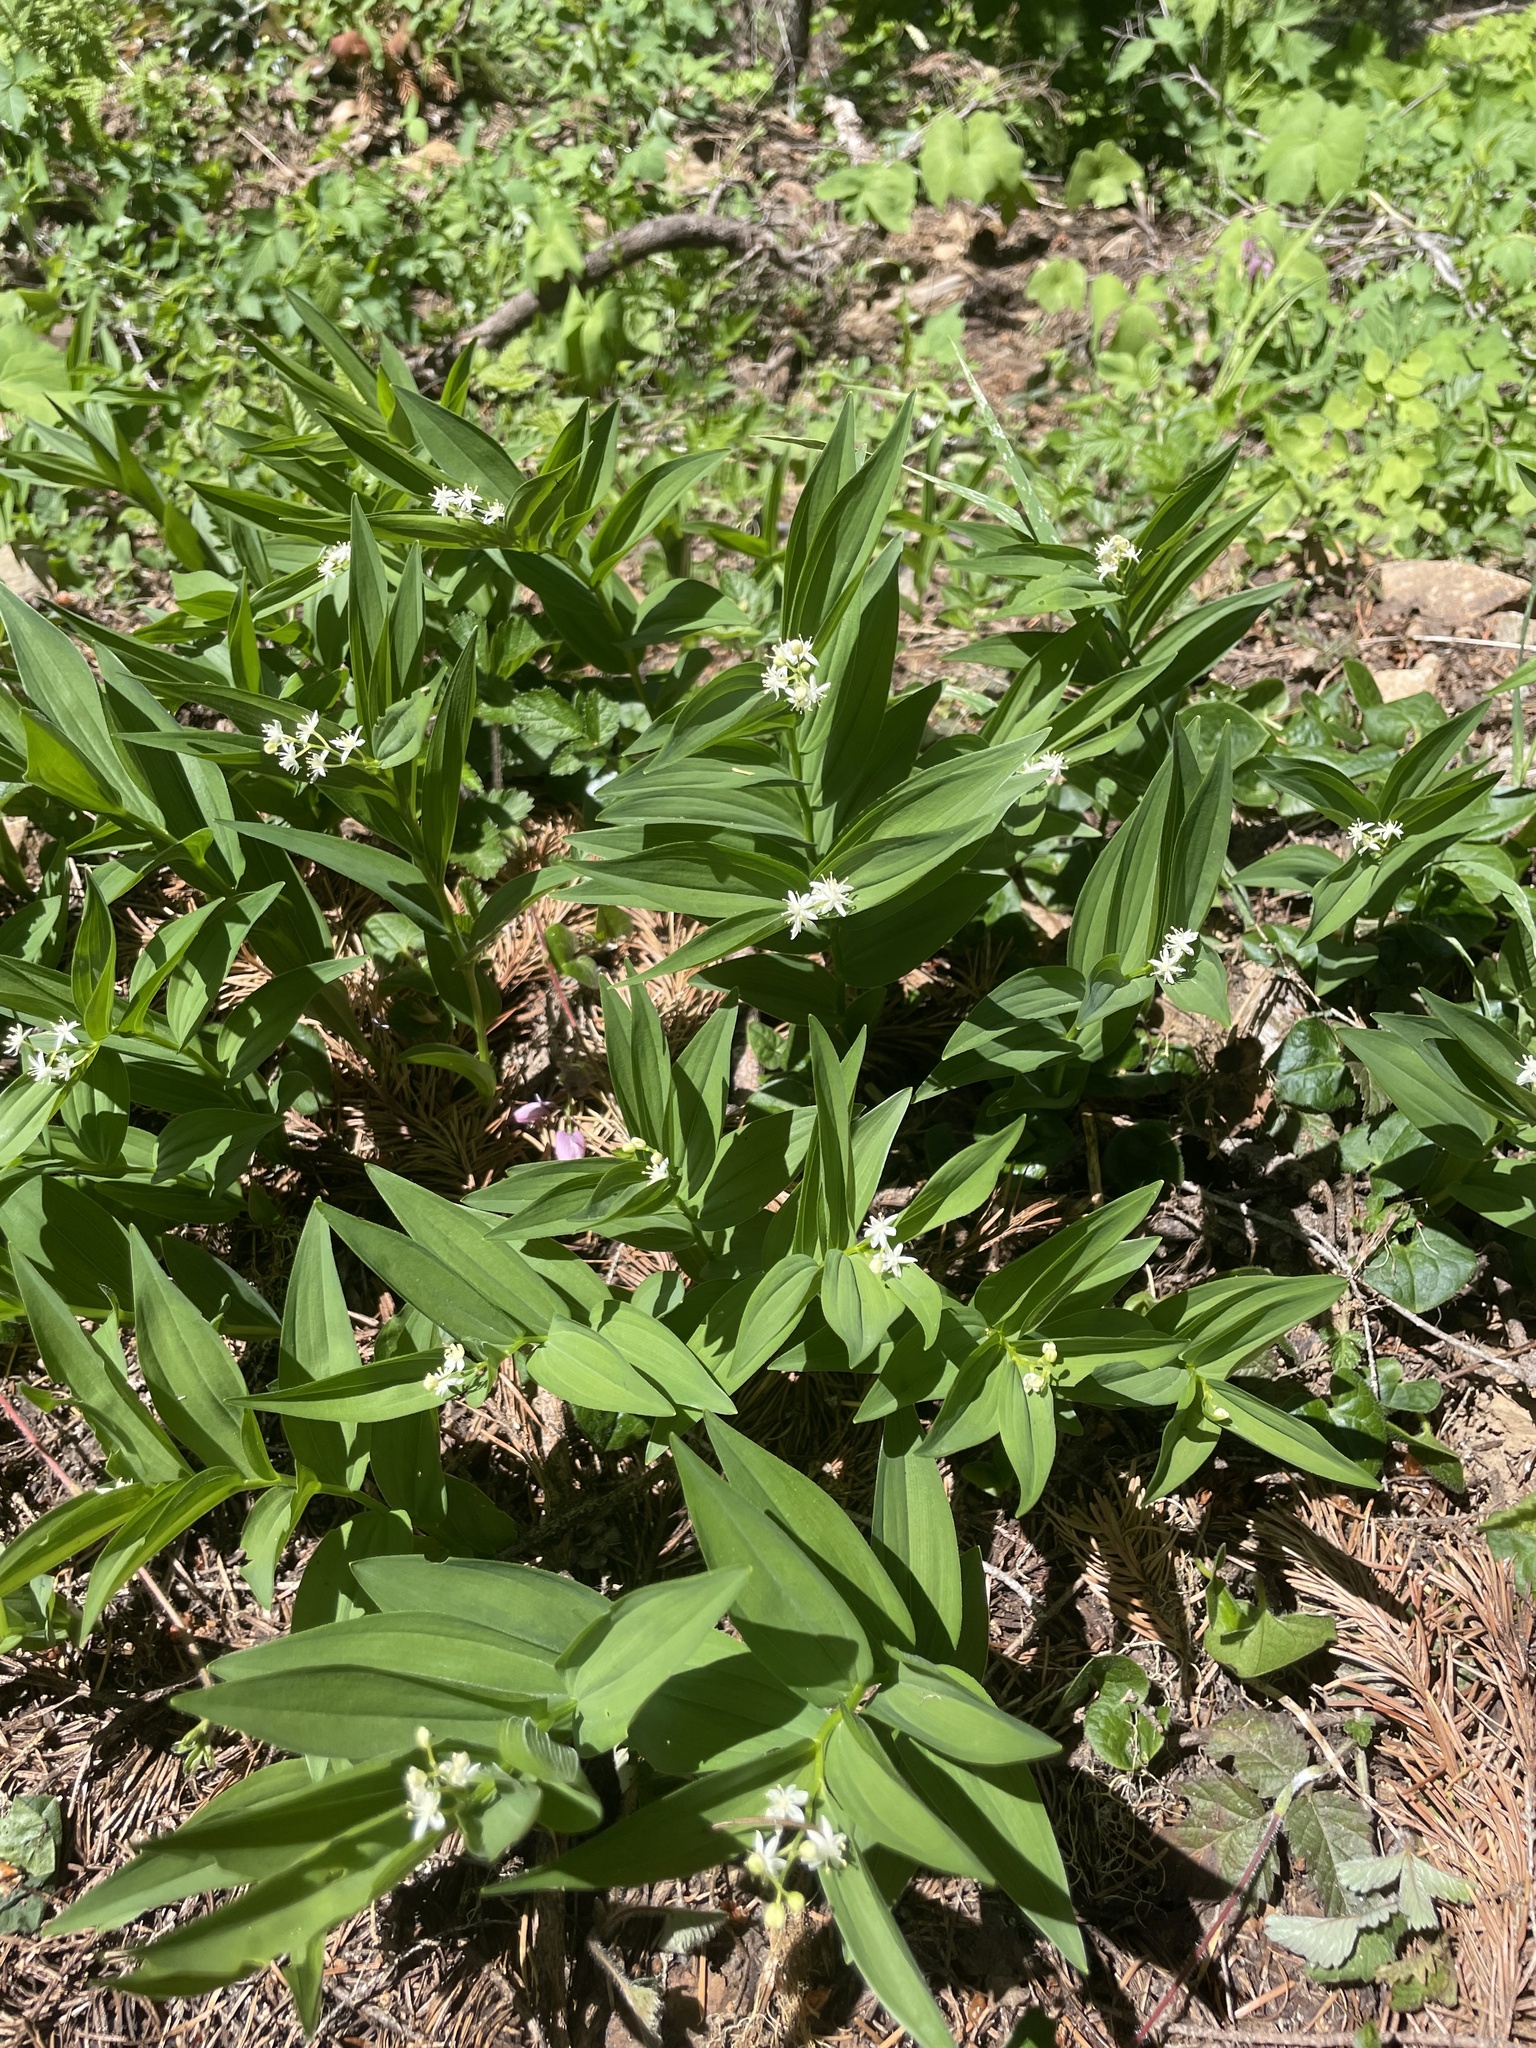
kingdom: Plantae
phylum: Tracheophyta
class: Liliopsida
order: Asparagales
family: Asparagaceae
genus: Maianthemum
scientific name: Maianthemum stellatum
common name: Little false solomon's seal
